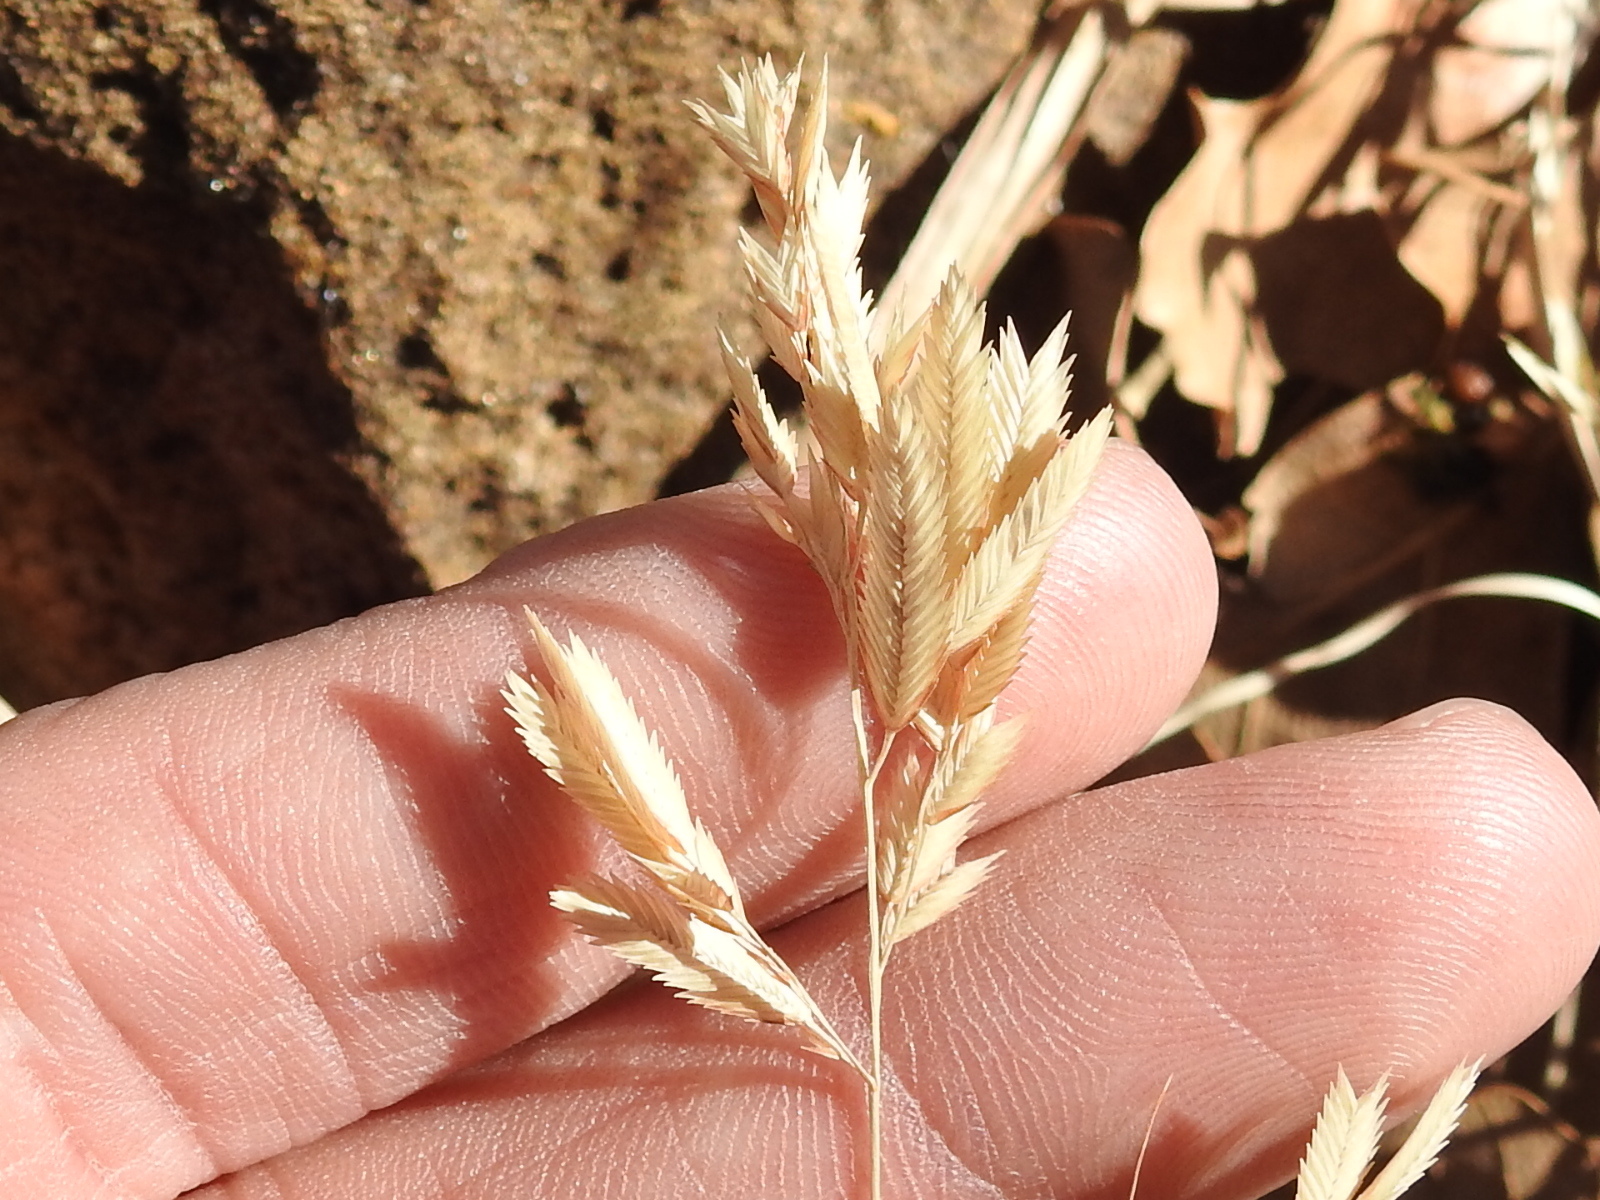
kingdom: Plantae
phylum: Tracheophyta
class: Liliopsida
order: Poales
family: Poaceae
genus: Eragrostis
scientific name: Eragrostis secundiflora
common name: Red love grass
